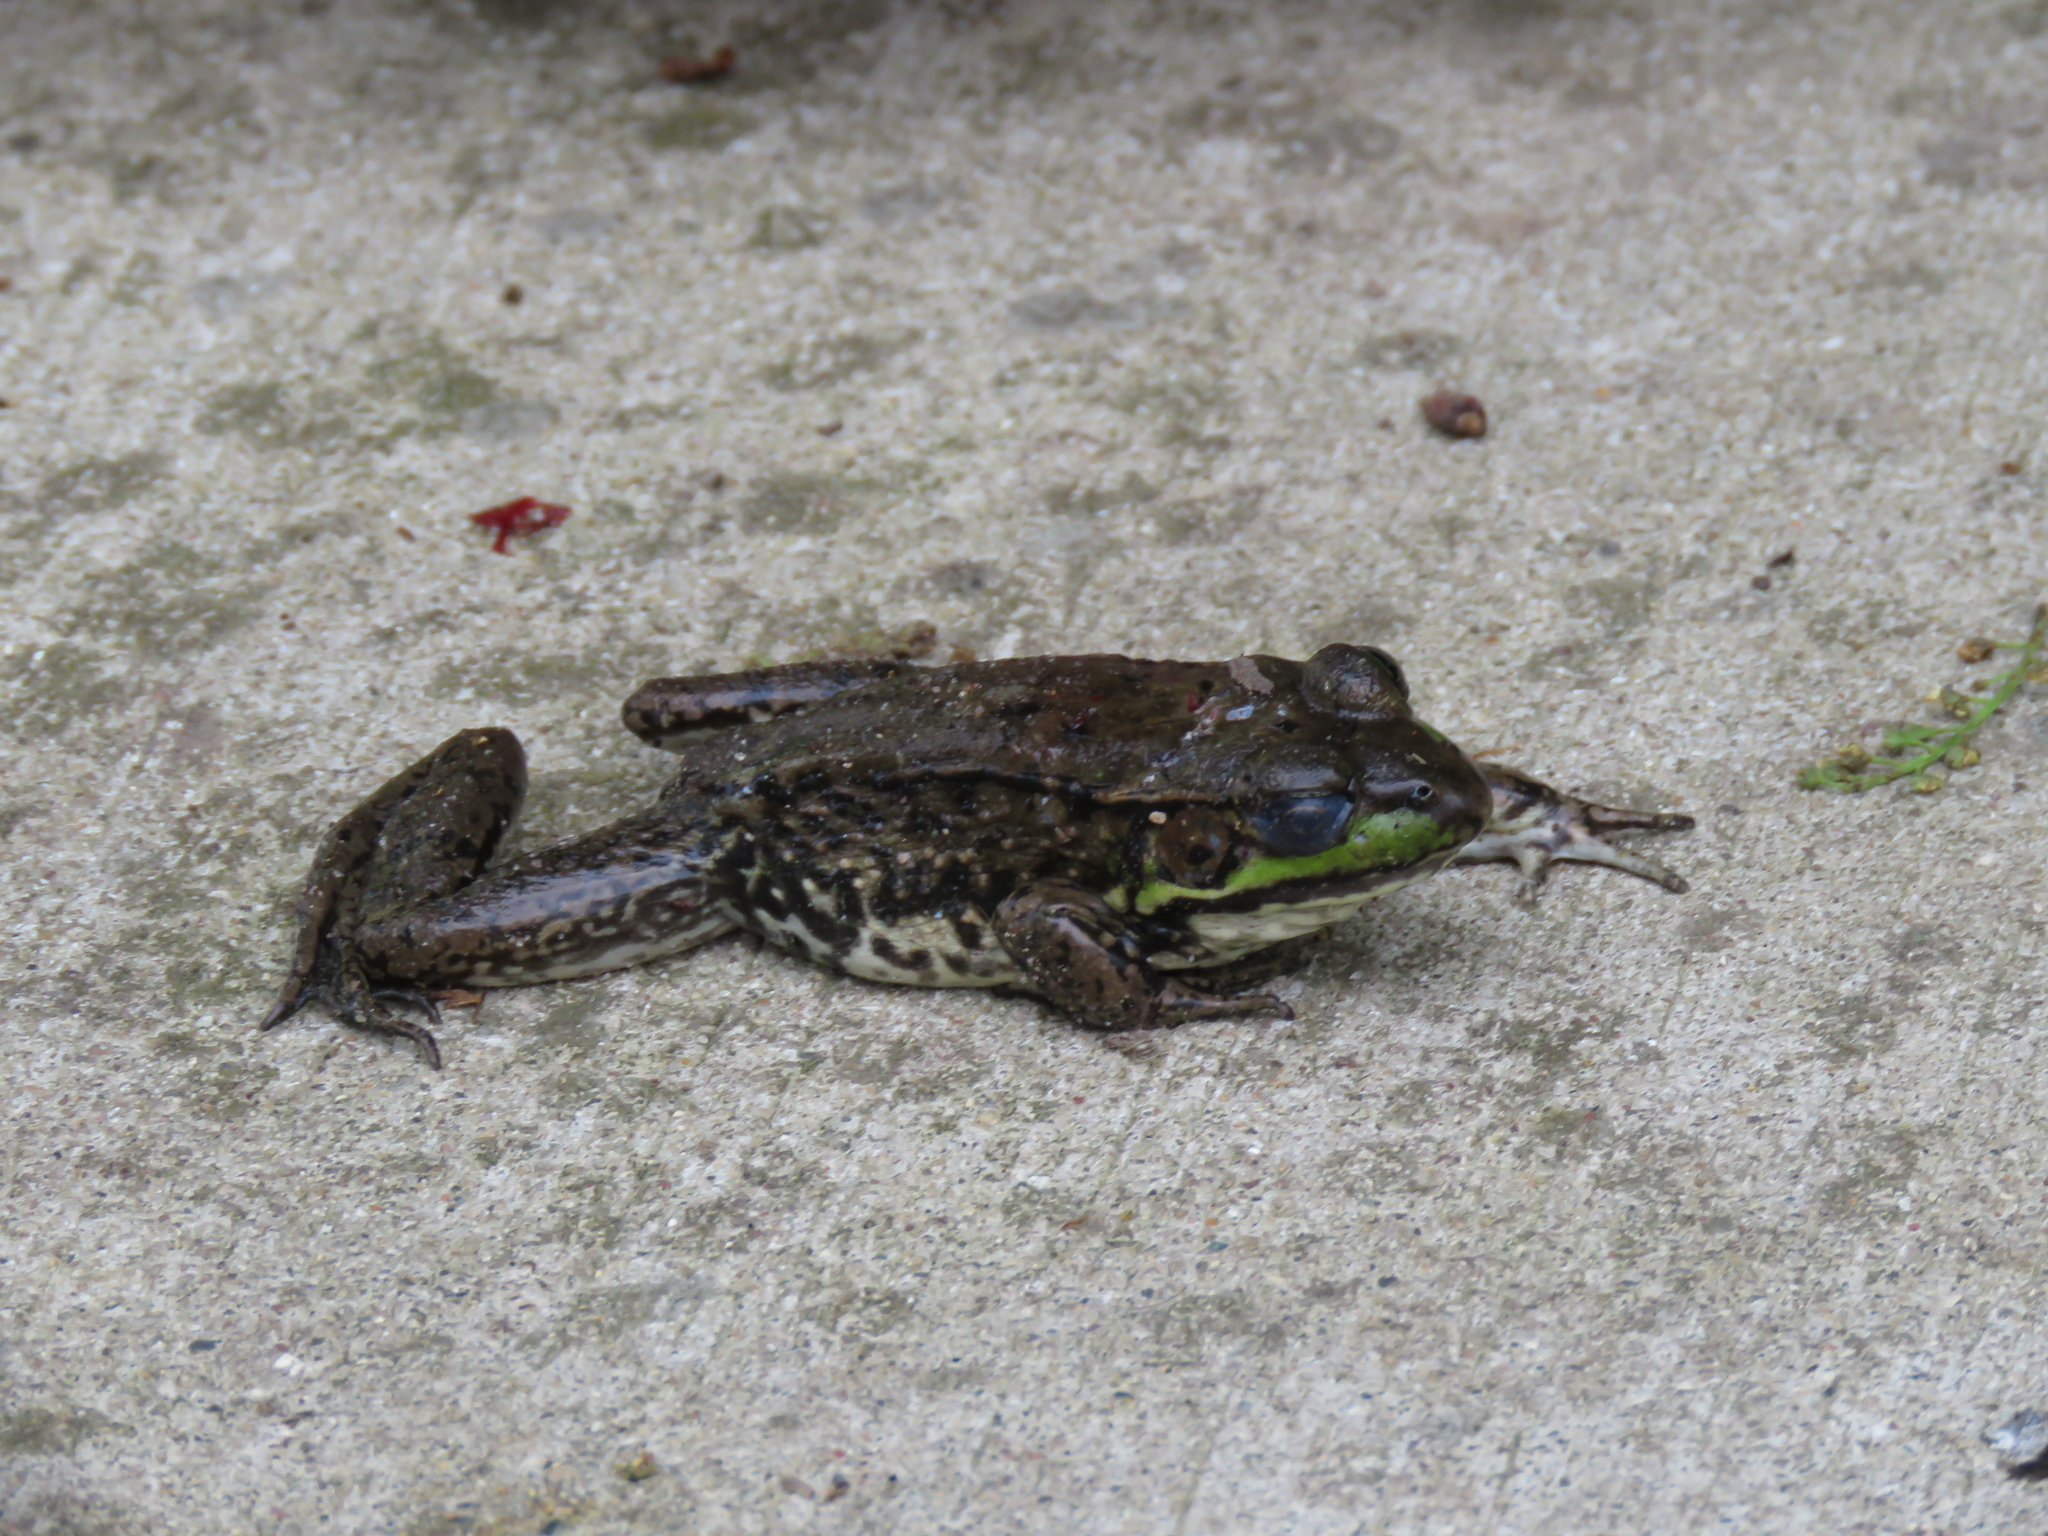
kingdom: Animalia
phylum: Chordata
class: Amphibia
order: Anura
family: Ranidae
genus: Lithobates
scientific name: Lithobates clamitans
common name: Green frog
